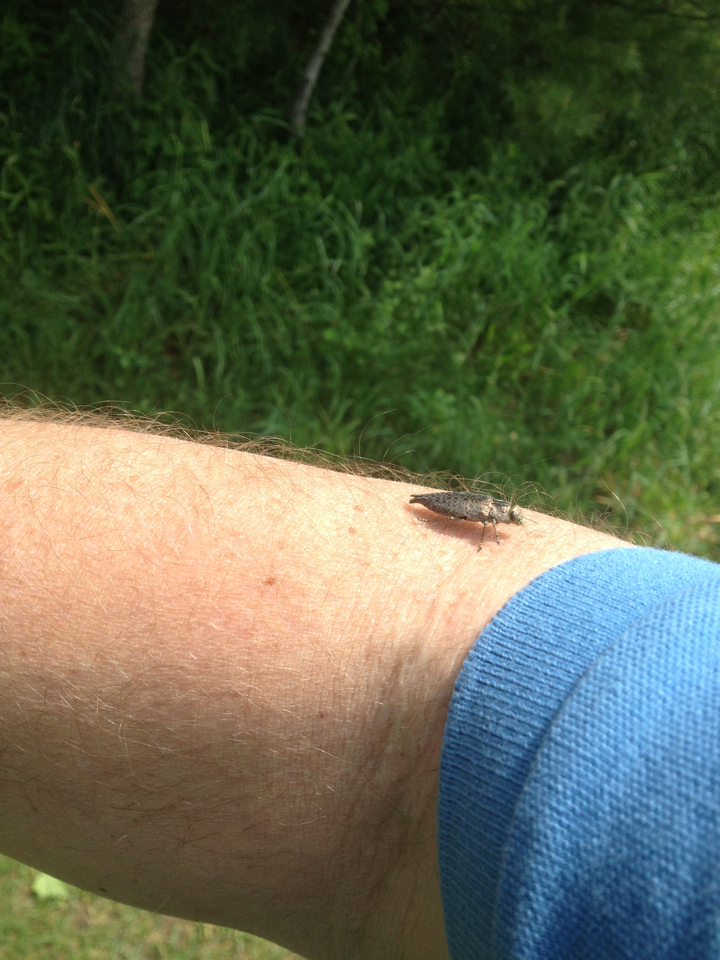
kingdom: Animalia
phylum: Arthropoda
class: Insecta
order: Coleoptera
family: Buprestidae
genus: Dicerca
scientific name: Dicerca
